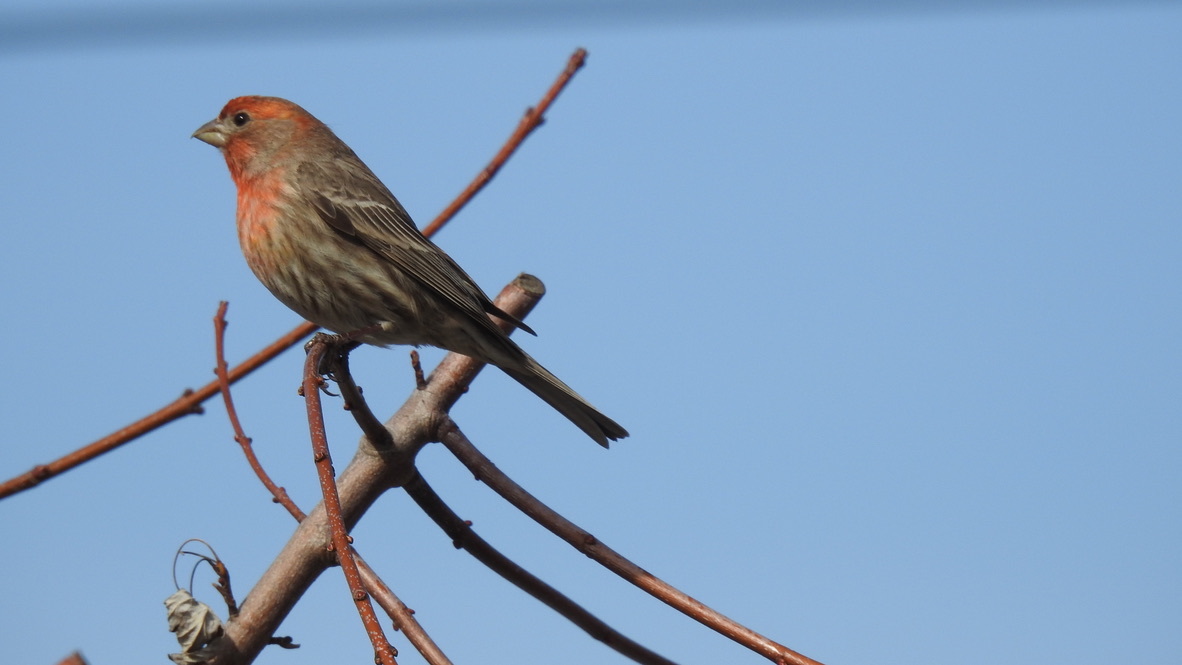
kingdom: Animalia
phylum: Chordata
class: Aves
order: Passeriformes
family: Fringillidae
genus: Haemorhous
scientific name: Haemorhous mexicanus
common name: House finch
